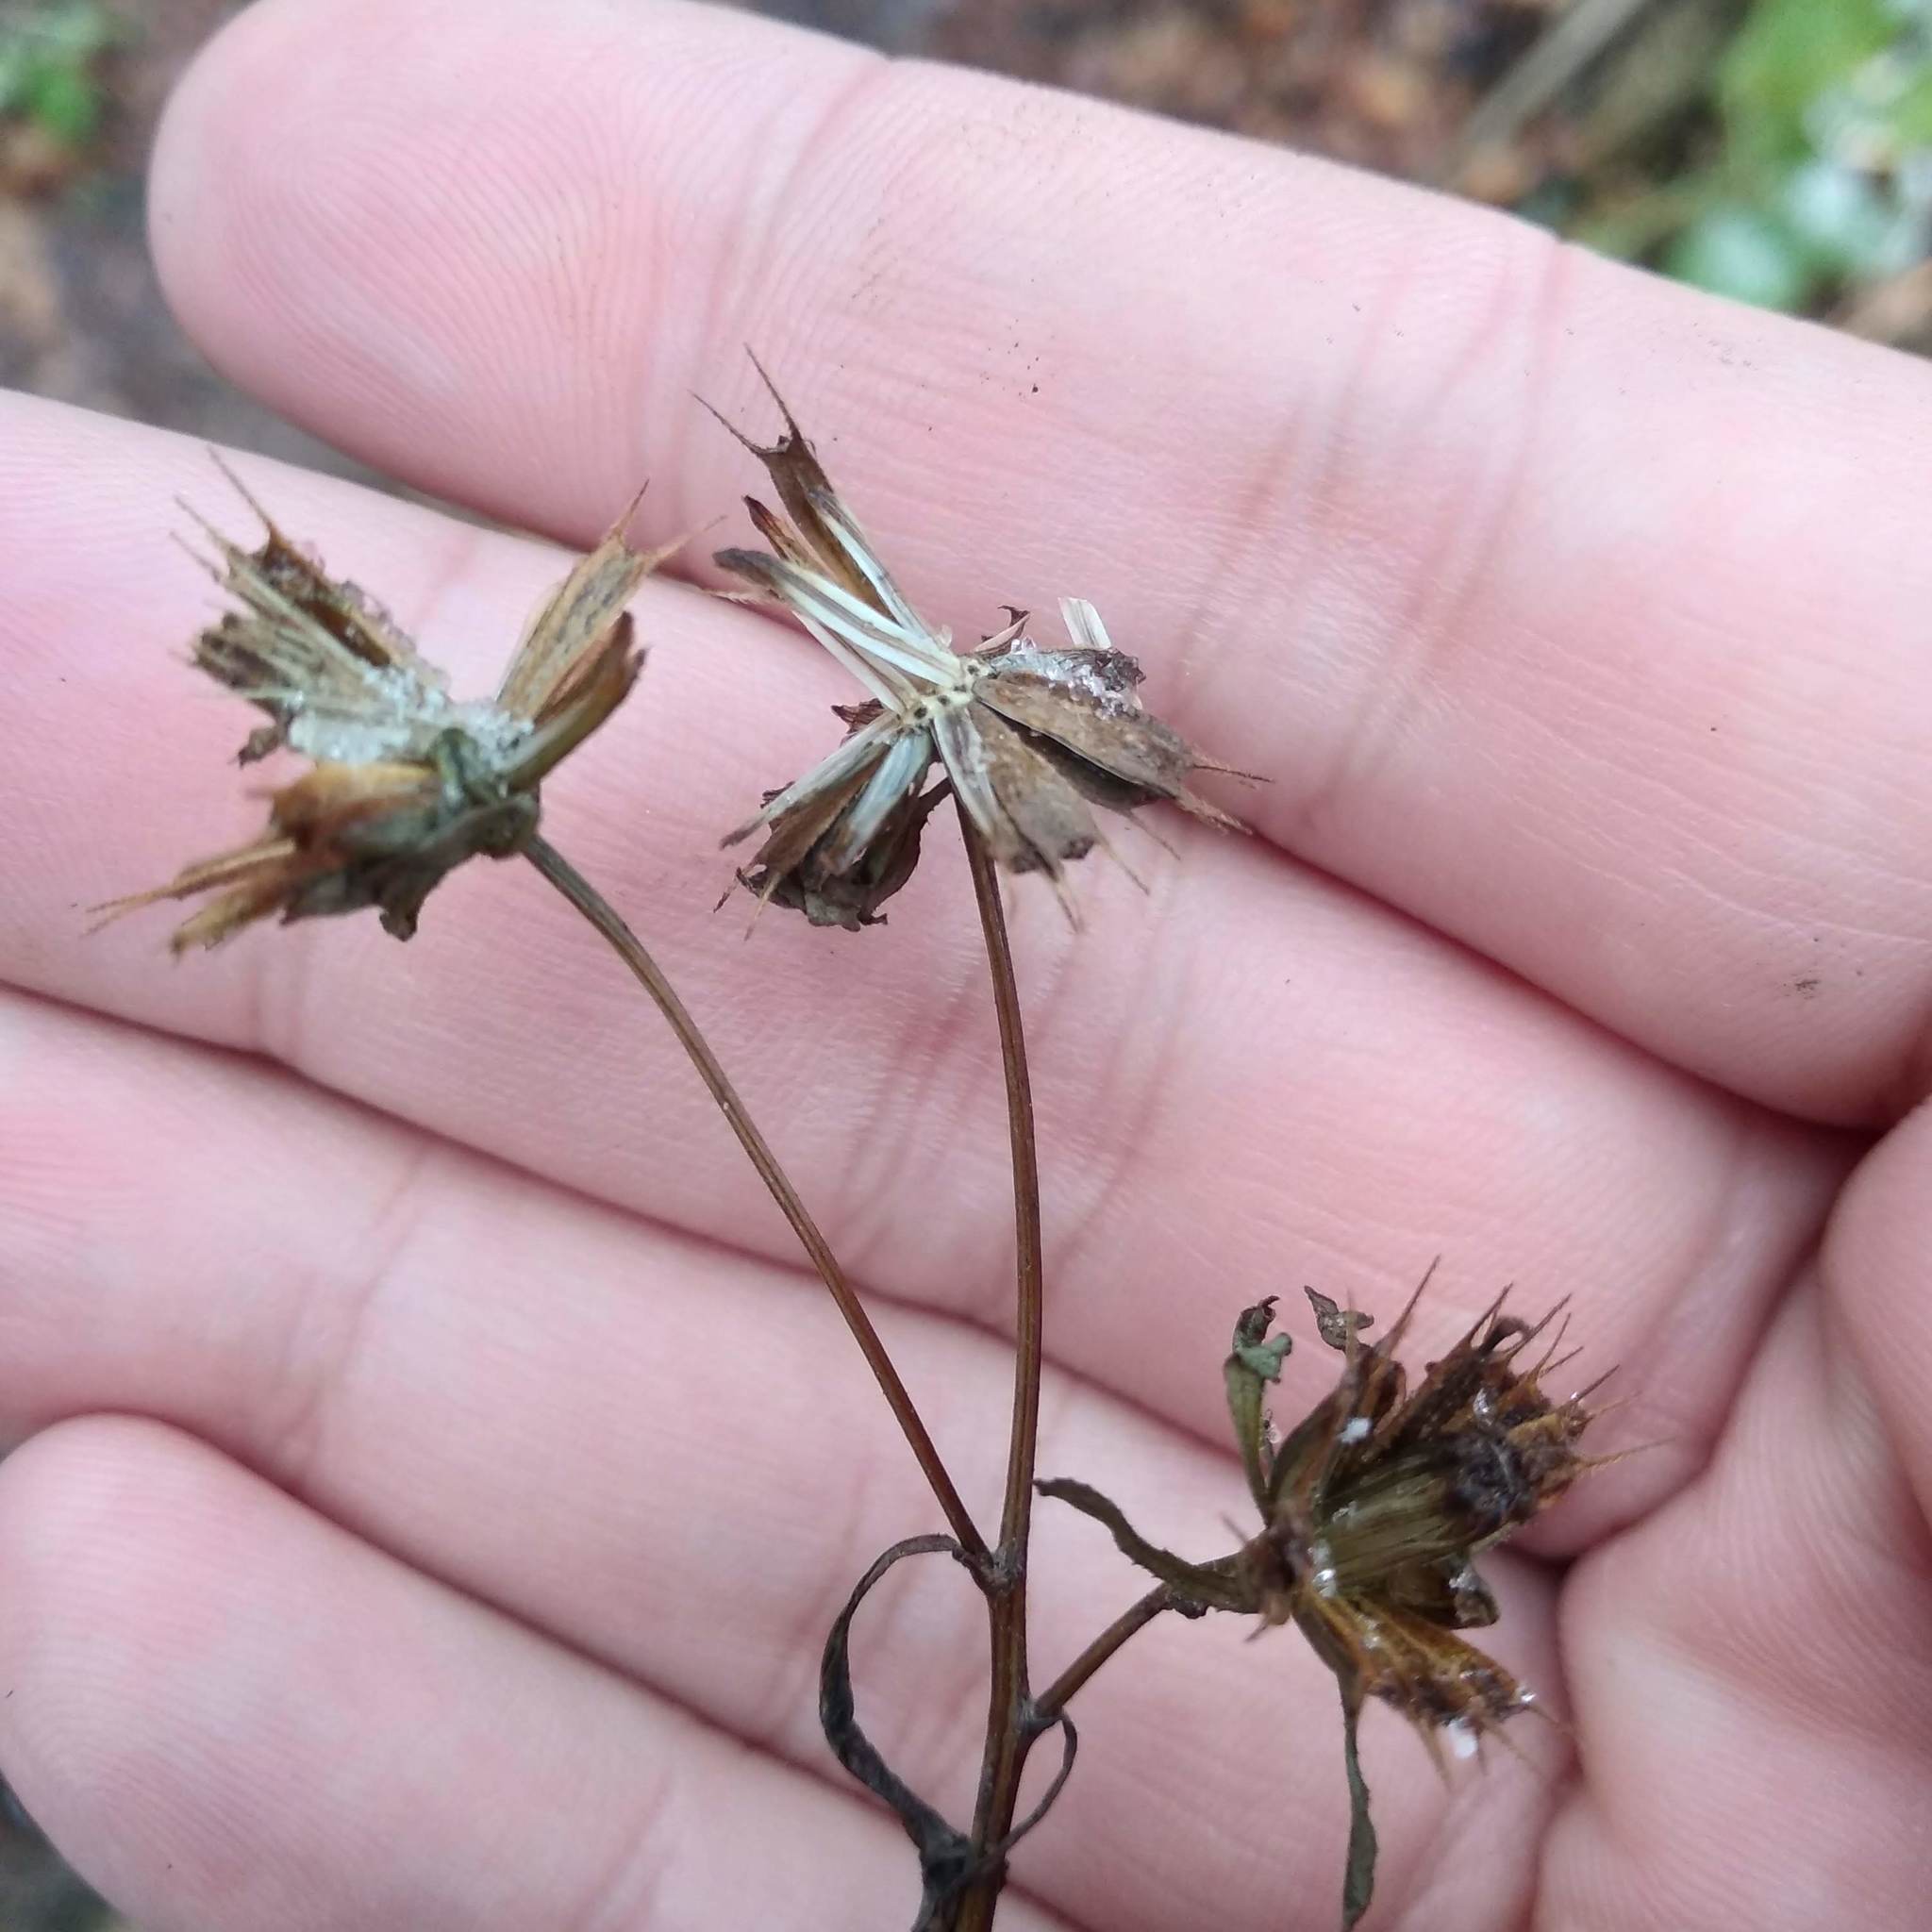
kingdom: Plantae
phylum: Tracheophyta
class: Magnoliopsida
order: Asterales
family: Asteraceae
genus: Bidens
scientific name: Bidens frondosa
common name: Beggarticks
